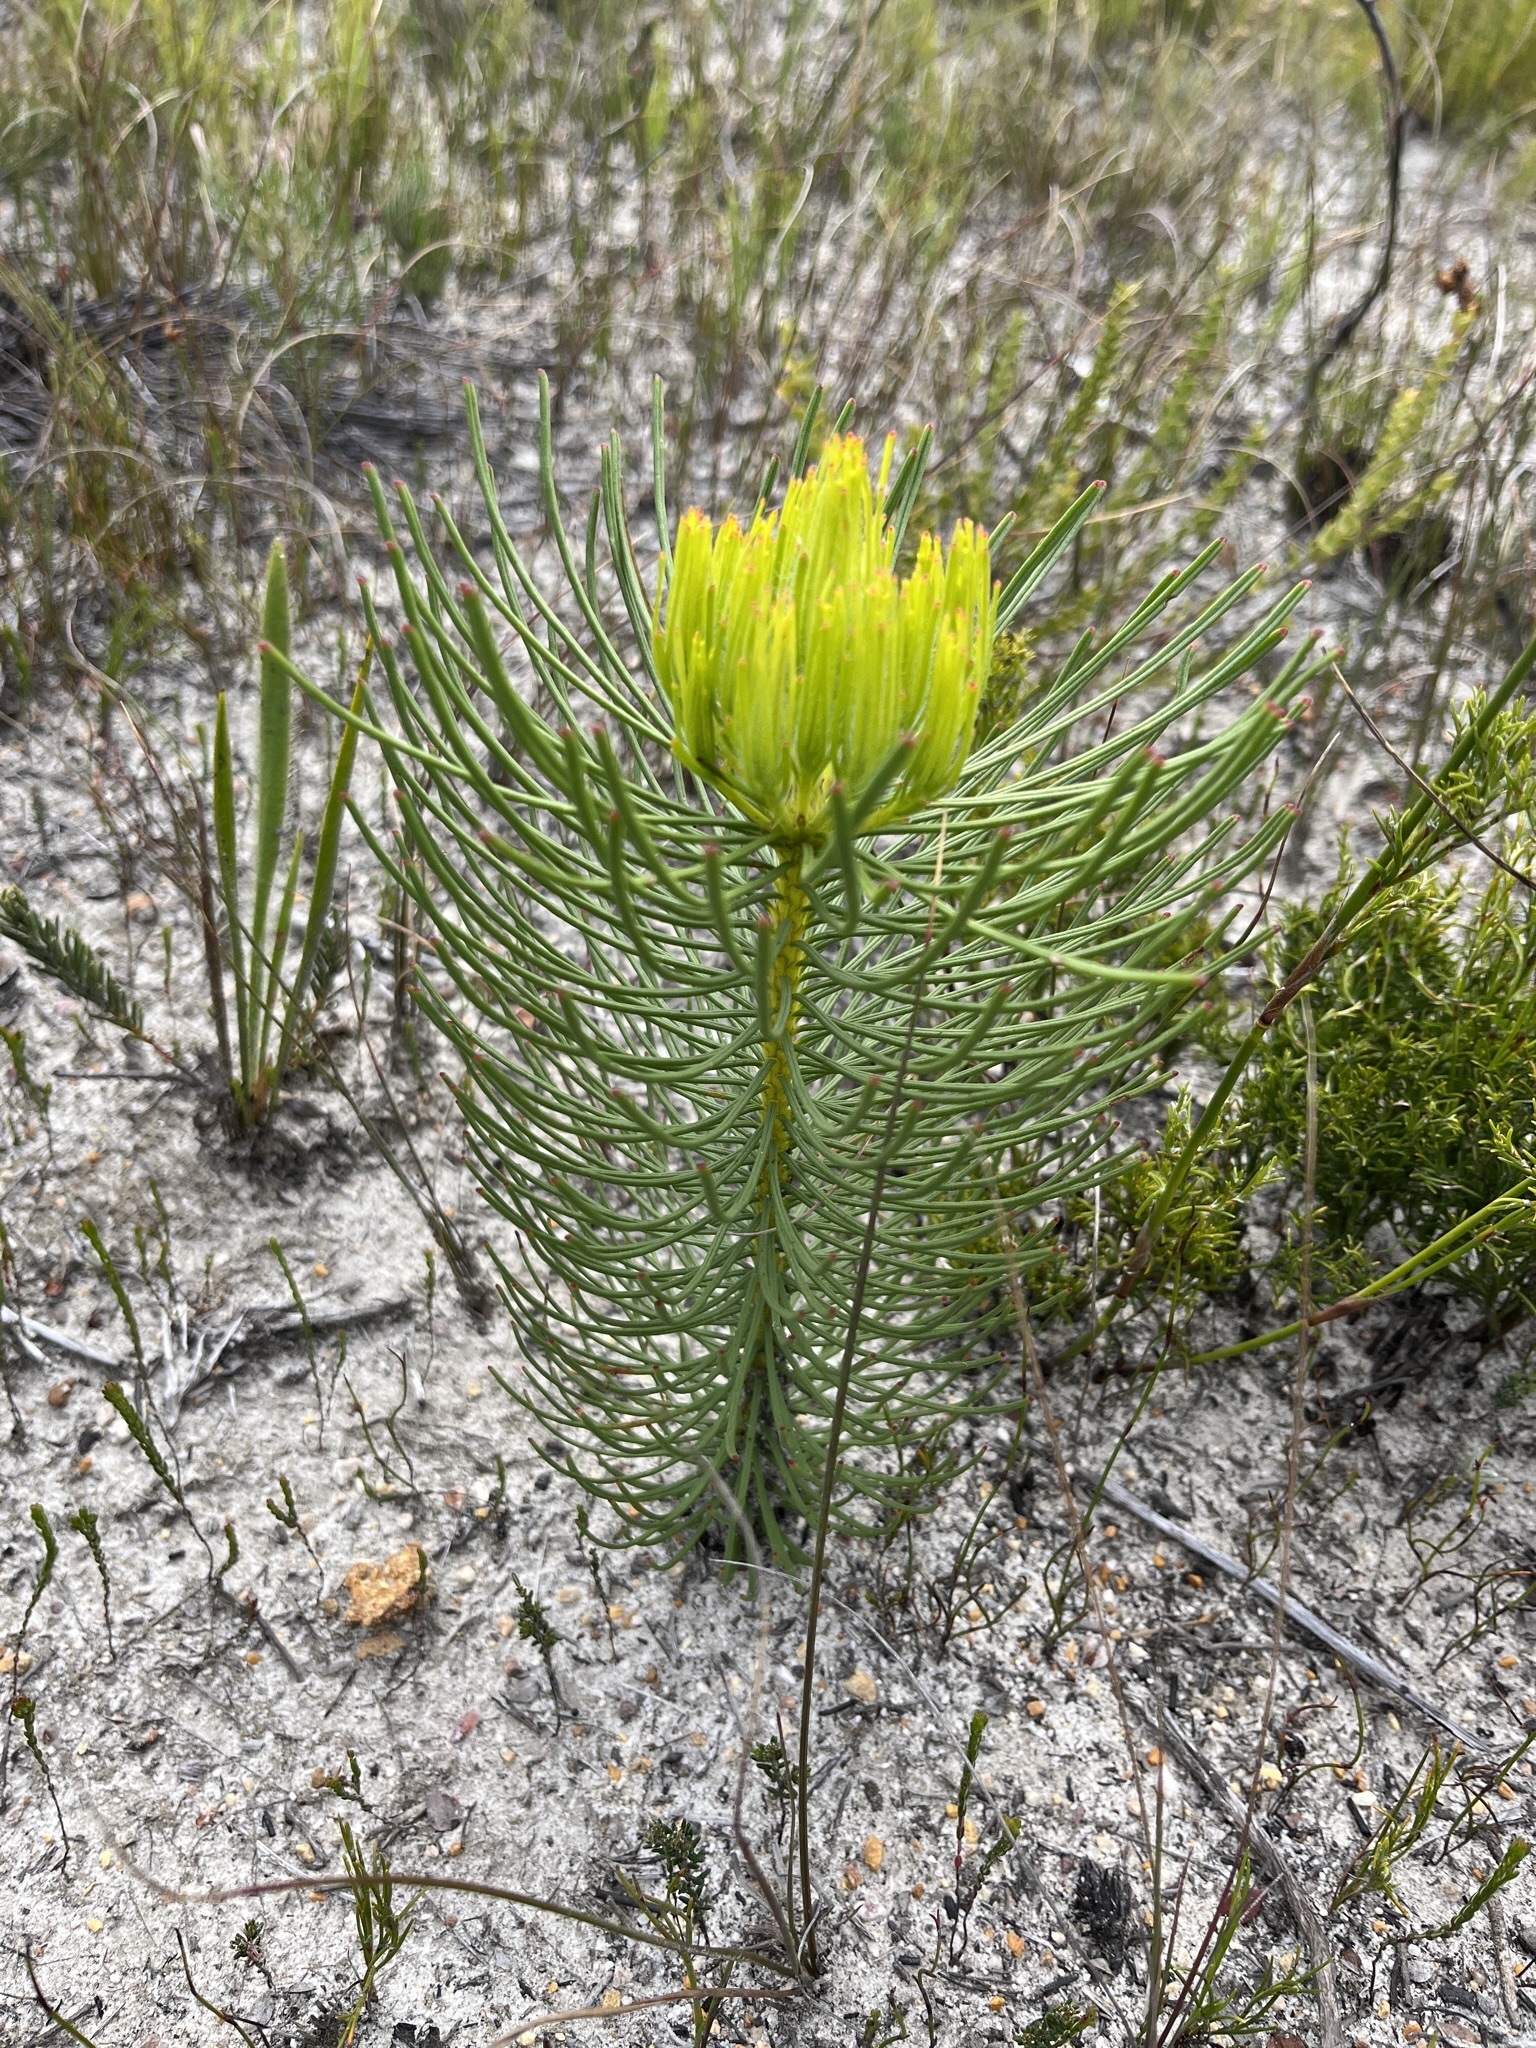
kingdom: Plantae
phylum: Tracheophyta
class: Magnoliopsida
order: Proteales
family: Proteaceae
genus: Leucadendron
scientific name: Leucadendron platyspermum
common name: Plate-seed conebush
